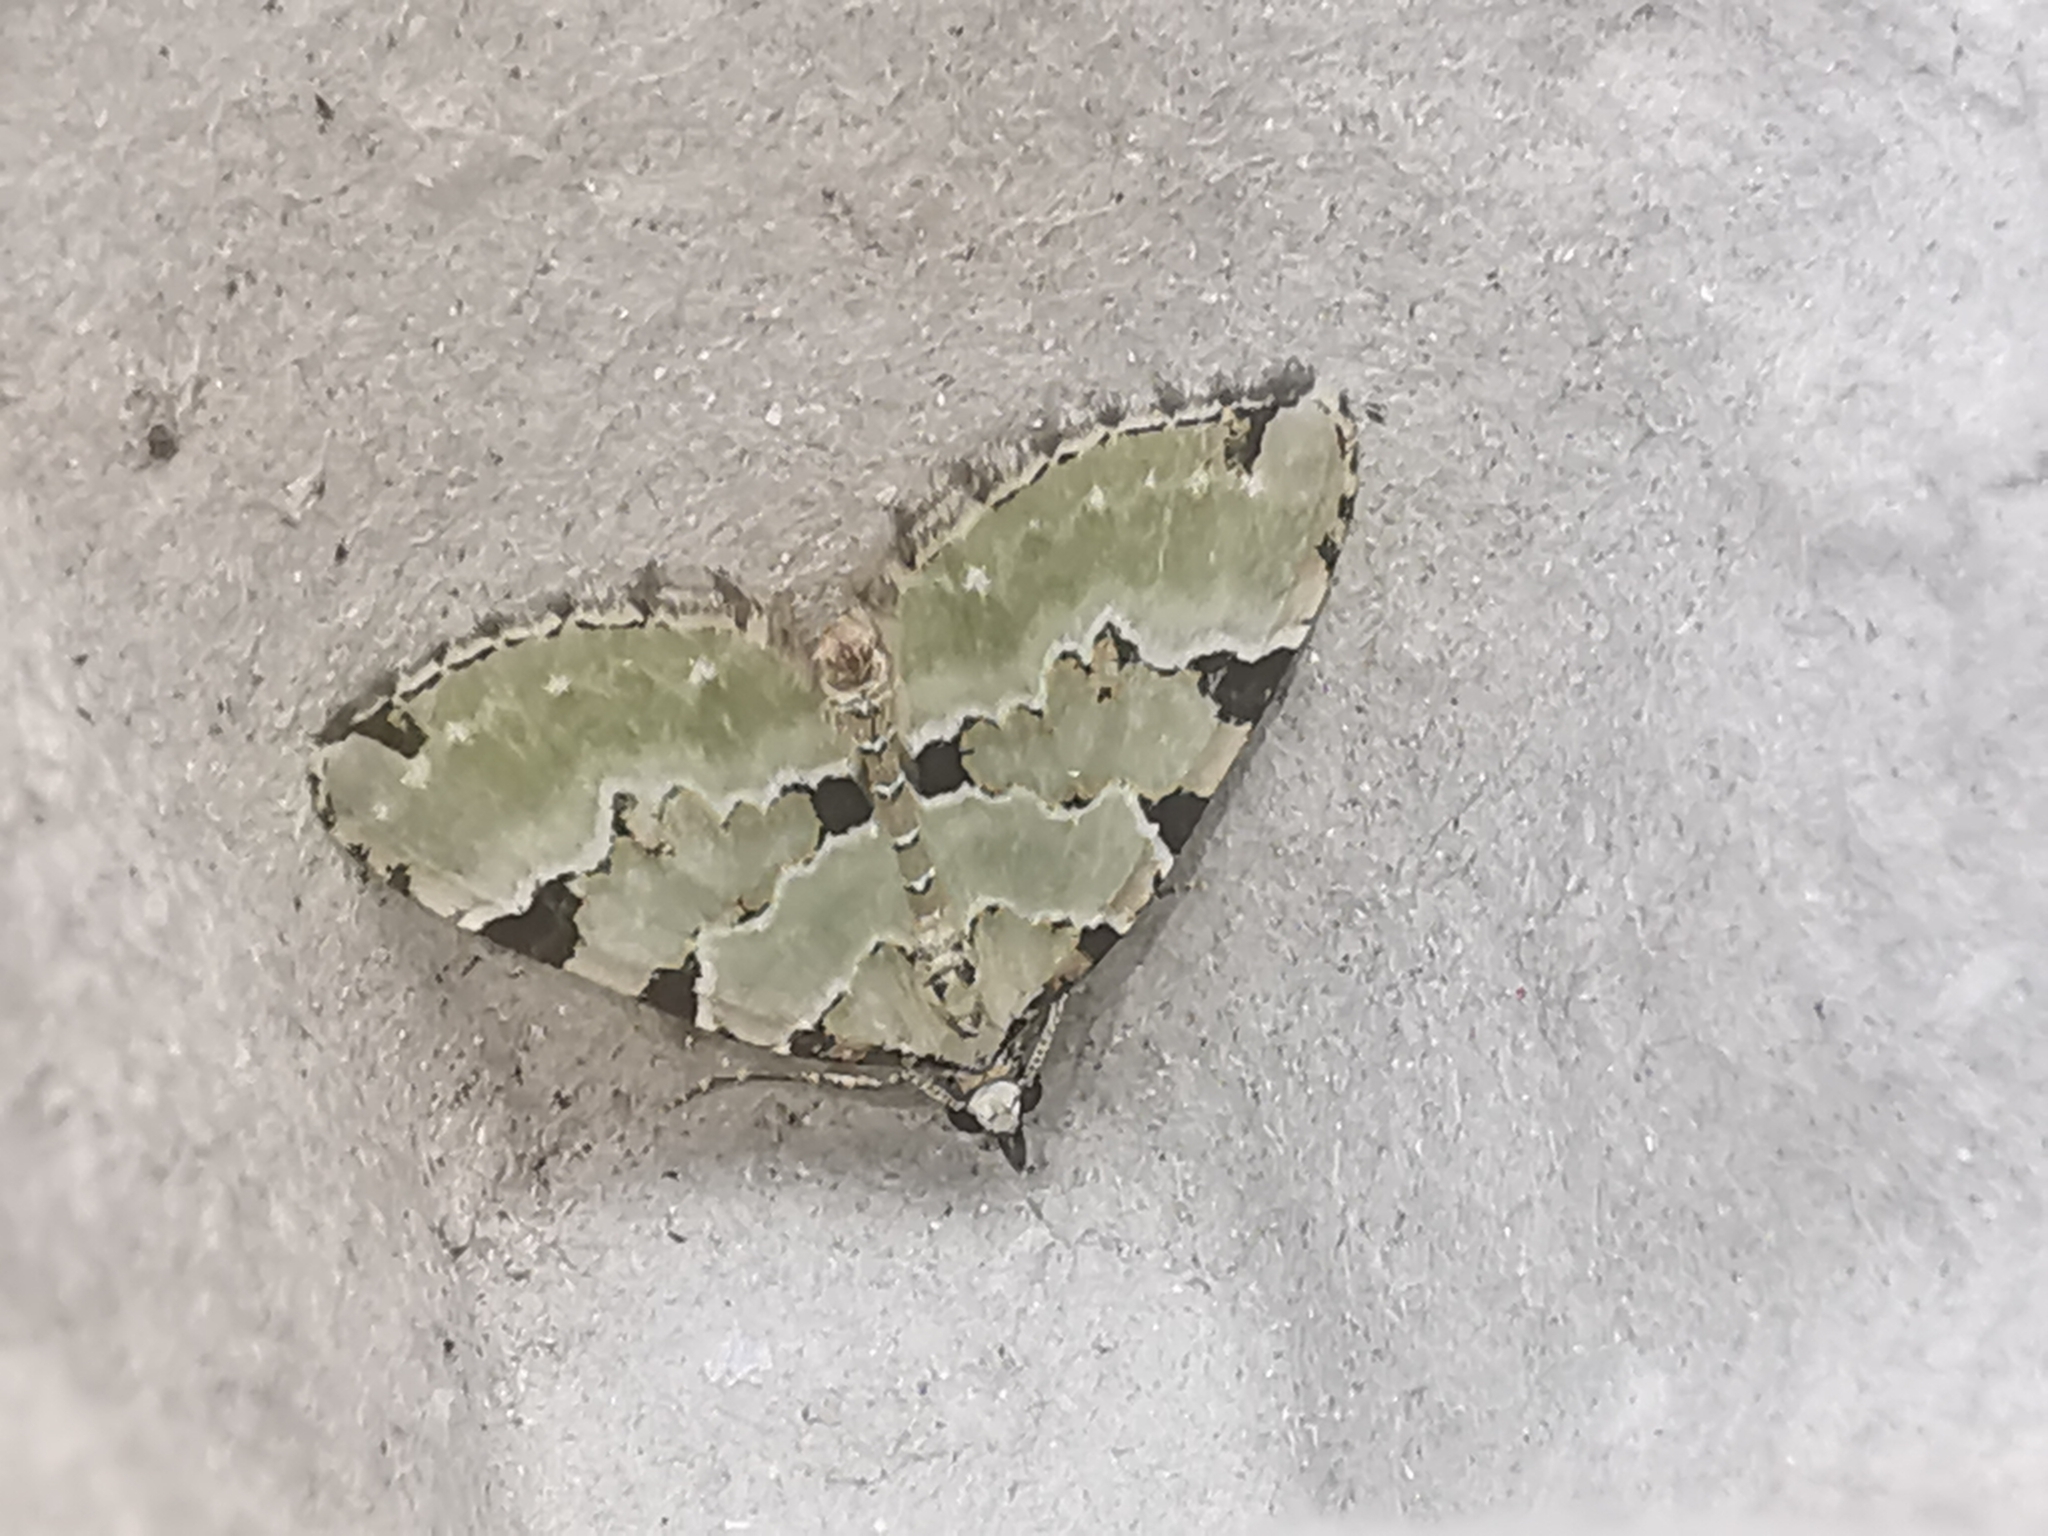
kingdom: Animalia
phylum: Arthropoda
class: Insecta
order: Lepidoptera
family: Geometridae
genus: Colostygia
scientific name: Colostygia pectinataria
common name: Green carpet
